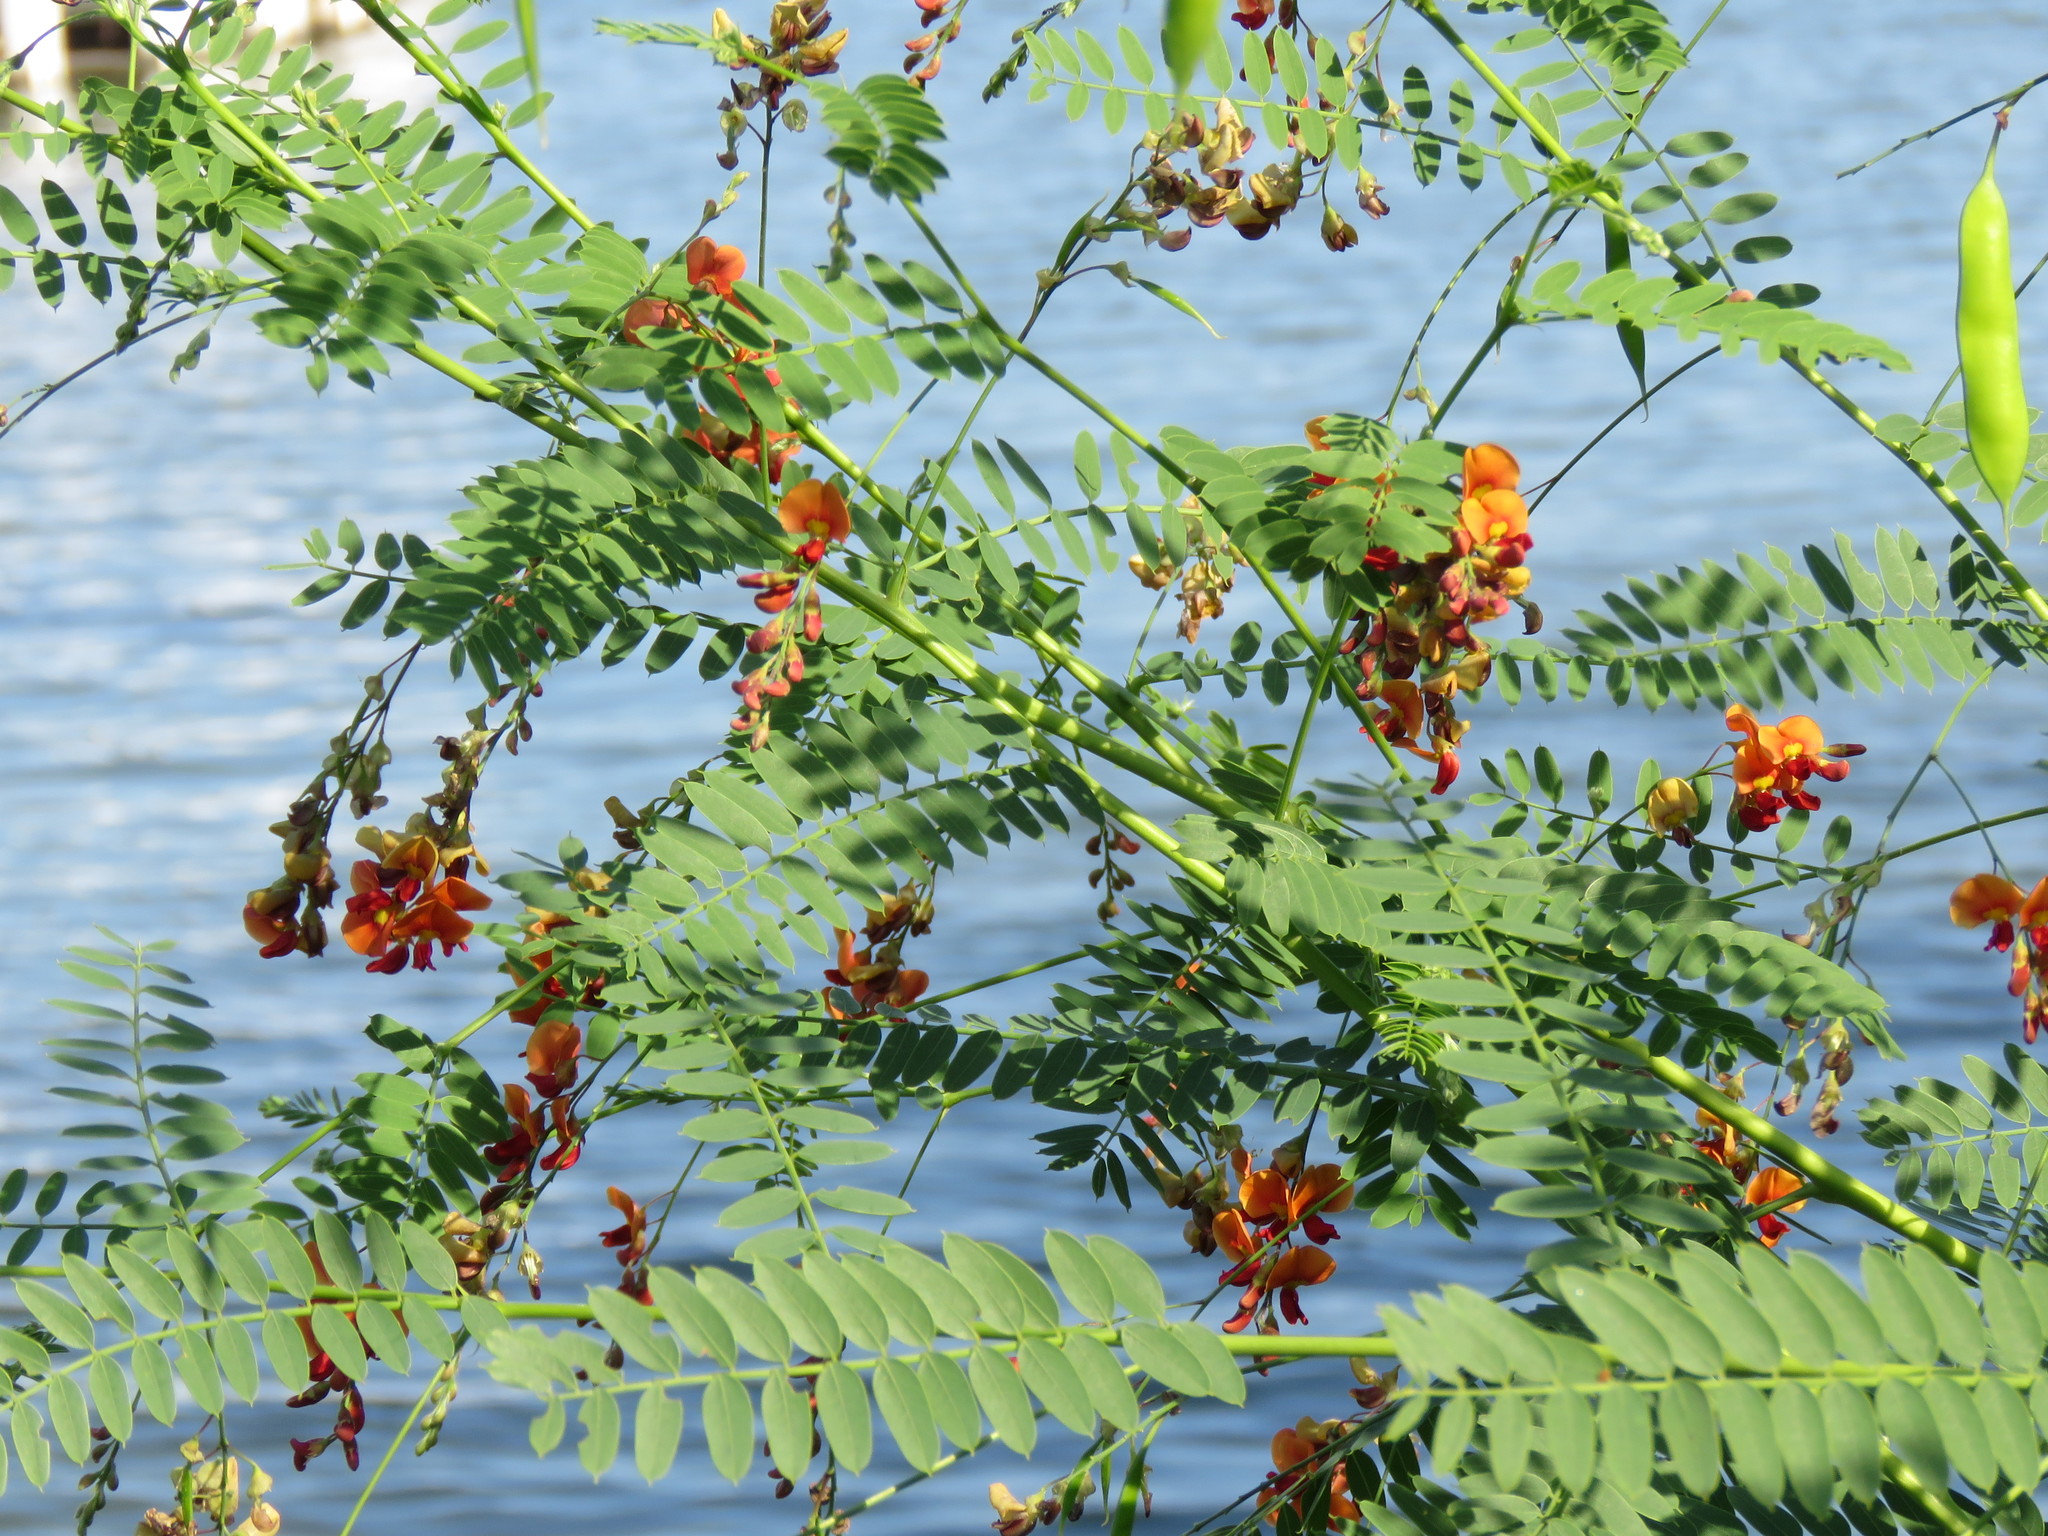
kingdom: Plantae
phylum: Tracheophyta
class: Magnoliopsida
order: Fabales
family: Fabaceae
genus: Sesbania
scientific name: Sesbania vesicaria
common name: Bagpod
